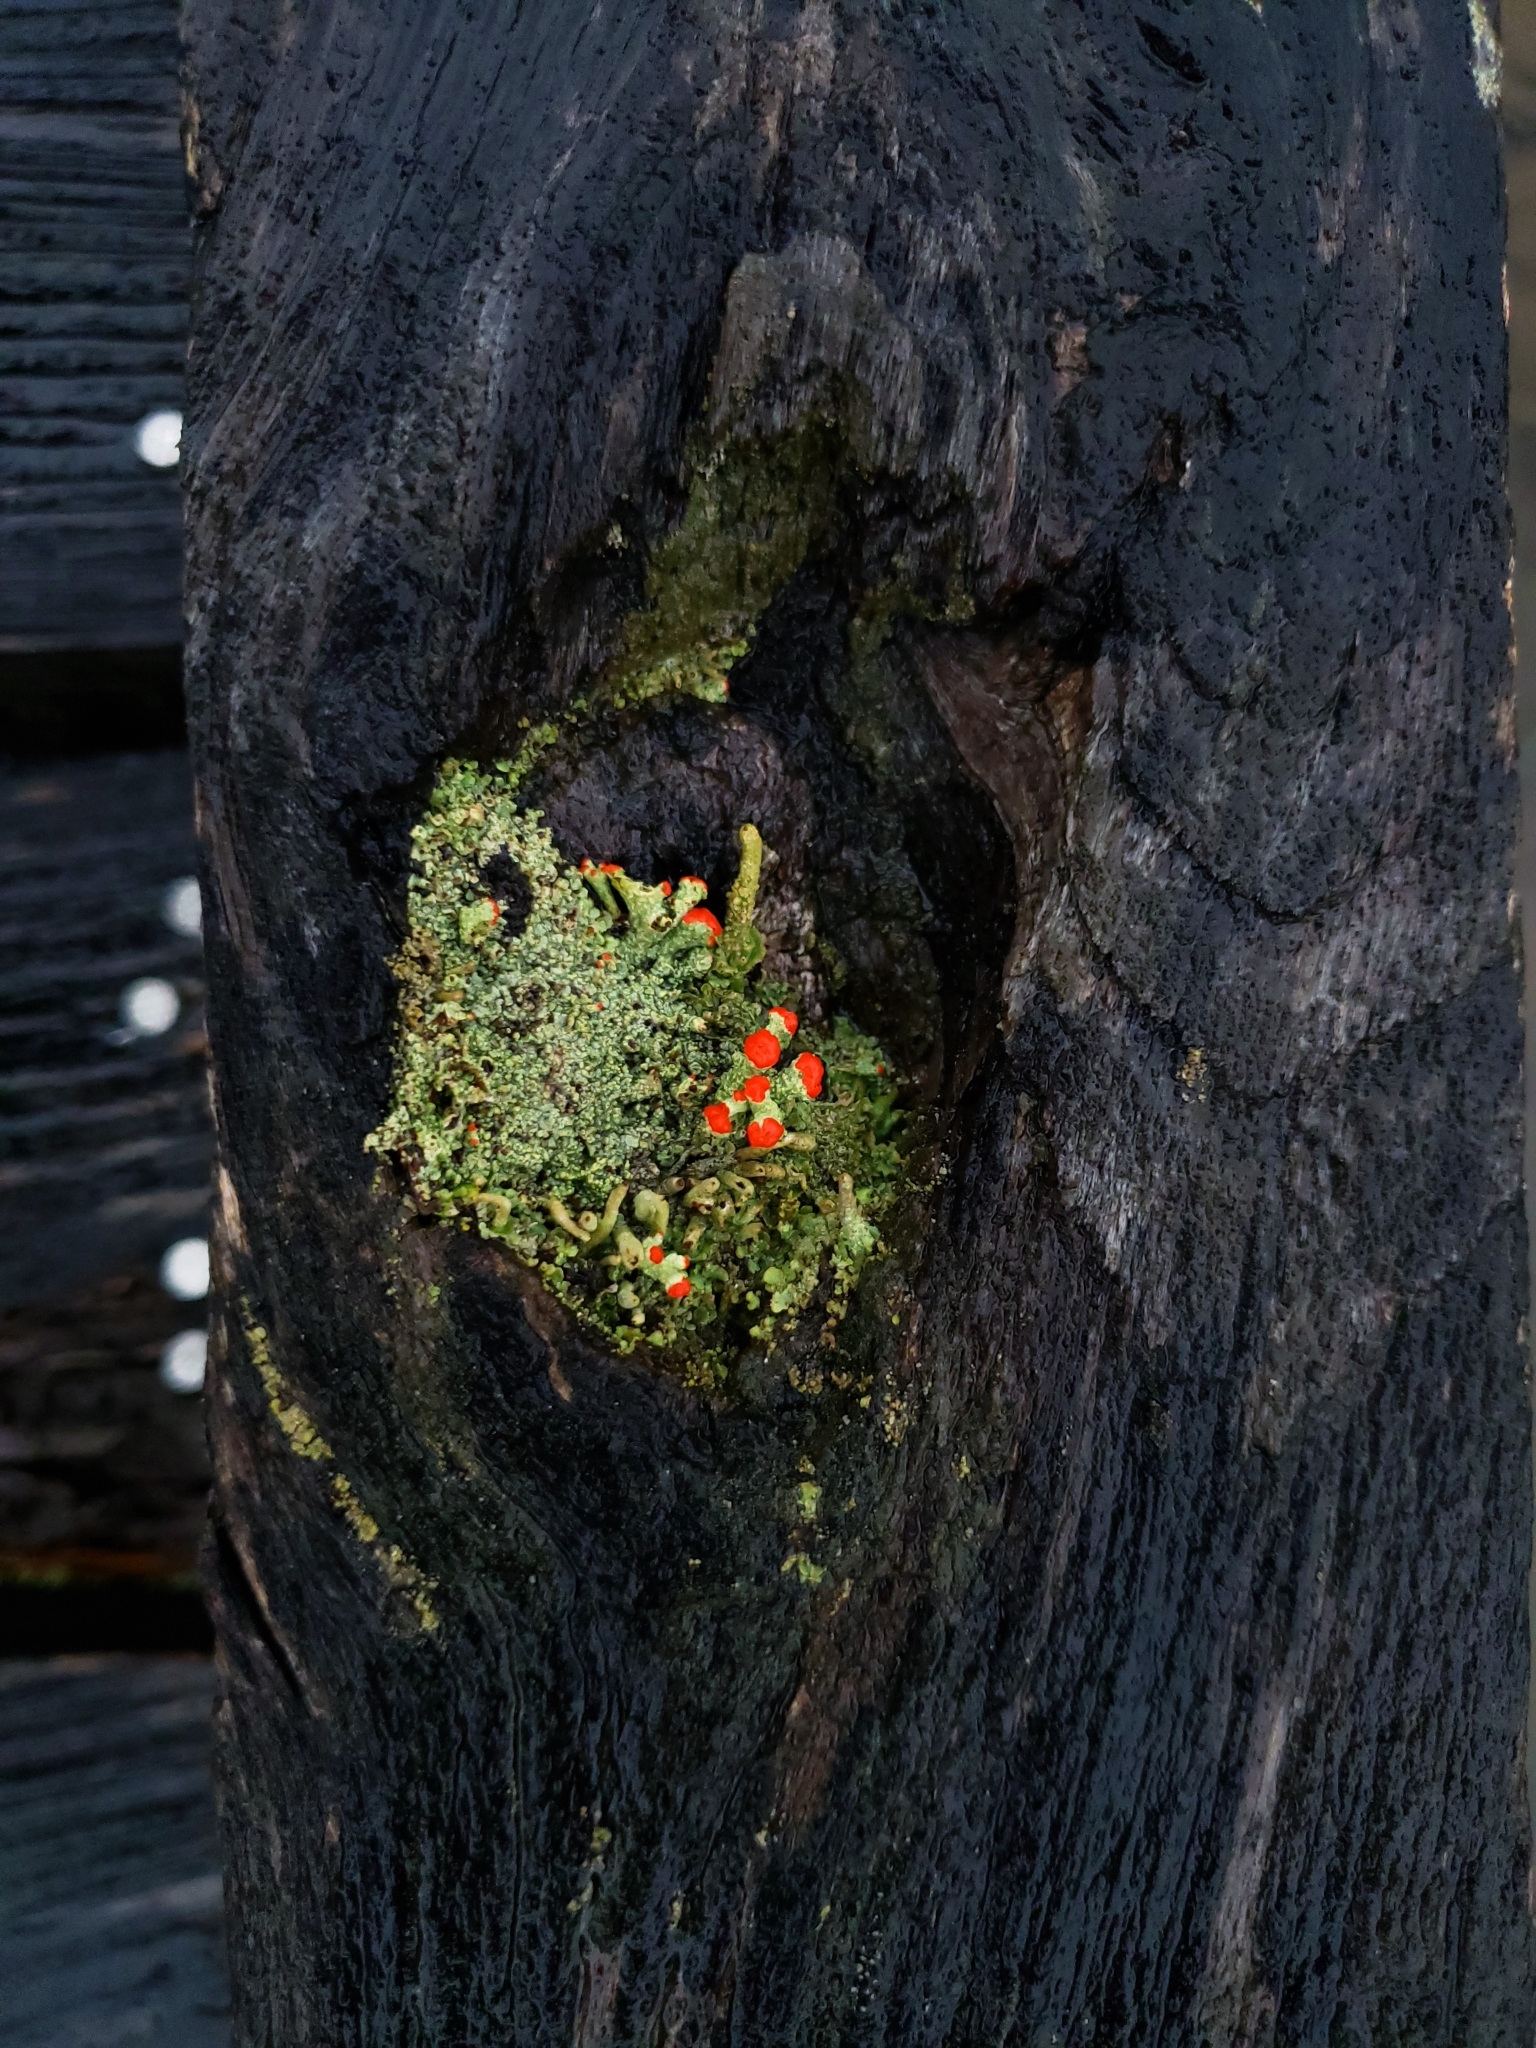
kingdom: Fungi
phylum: Ascomycota
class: Lecanoromycetes
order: Lecanorales
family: Cladoniaceae
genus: Cladonia
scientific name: Cladonia cristatella
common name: British soldier lichen
